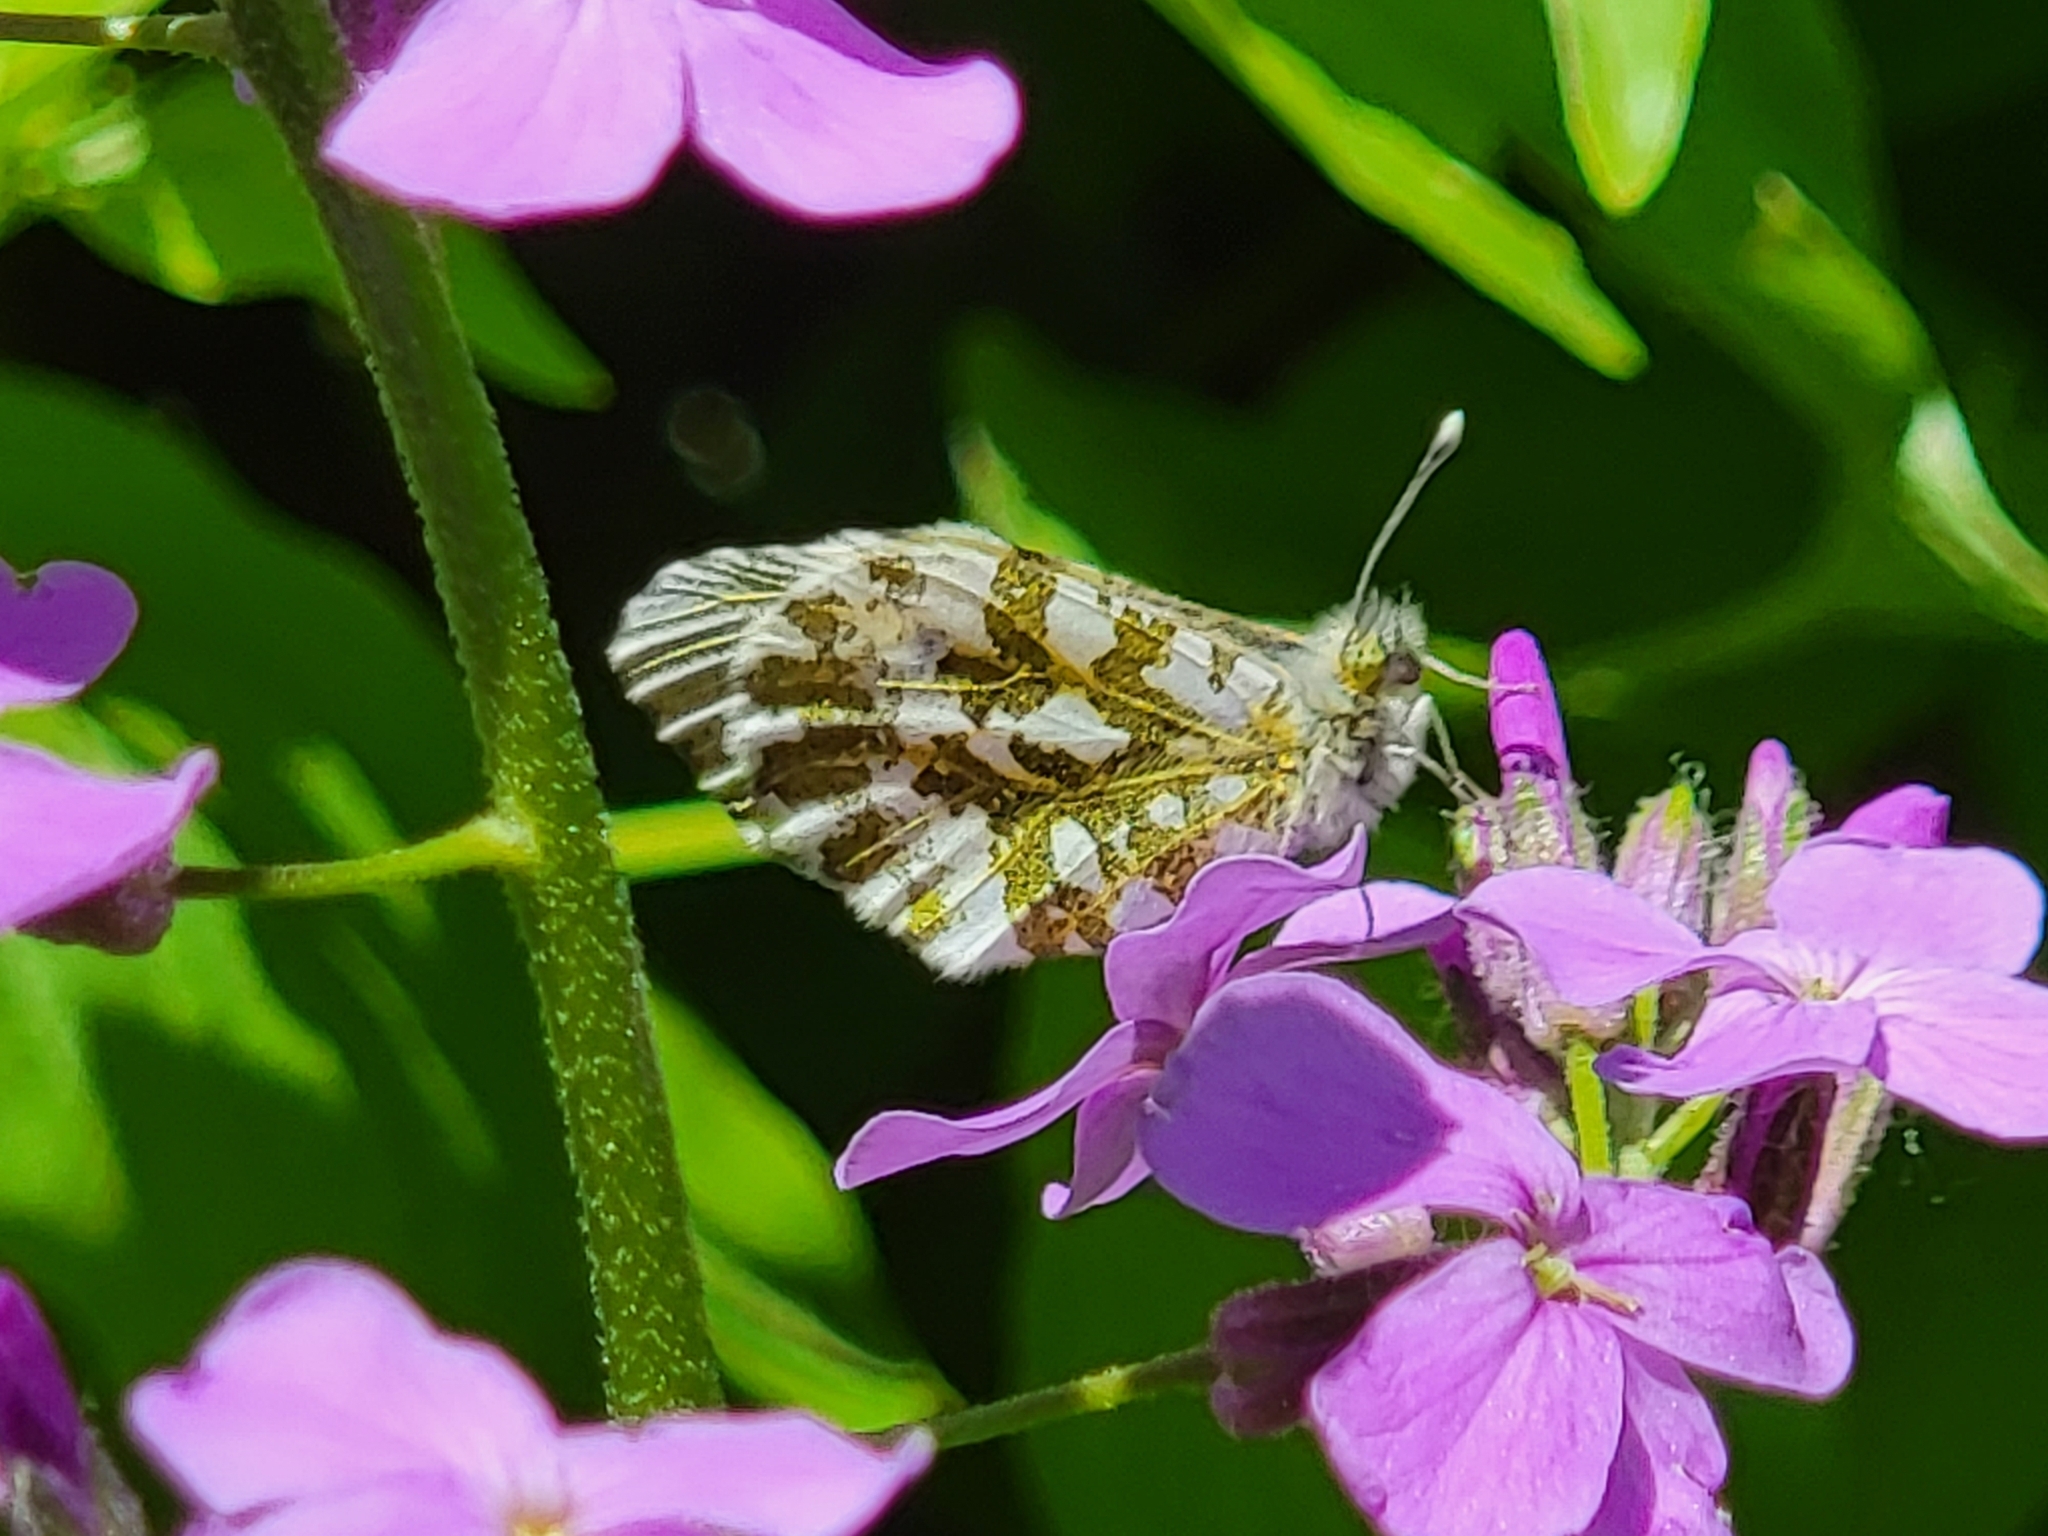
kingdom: Animalia
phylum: Arthropoda
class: Insecta
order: Lepidoptera
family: Pieridae
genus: Anthocharis
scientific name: Anthocharis cardamines
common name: Orange-tip
